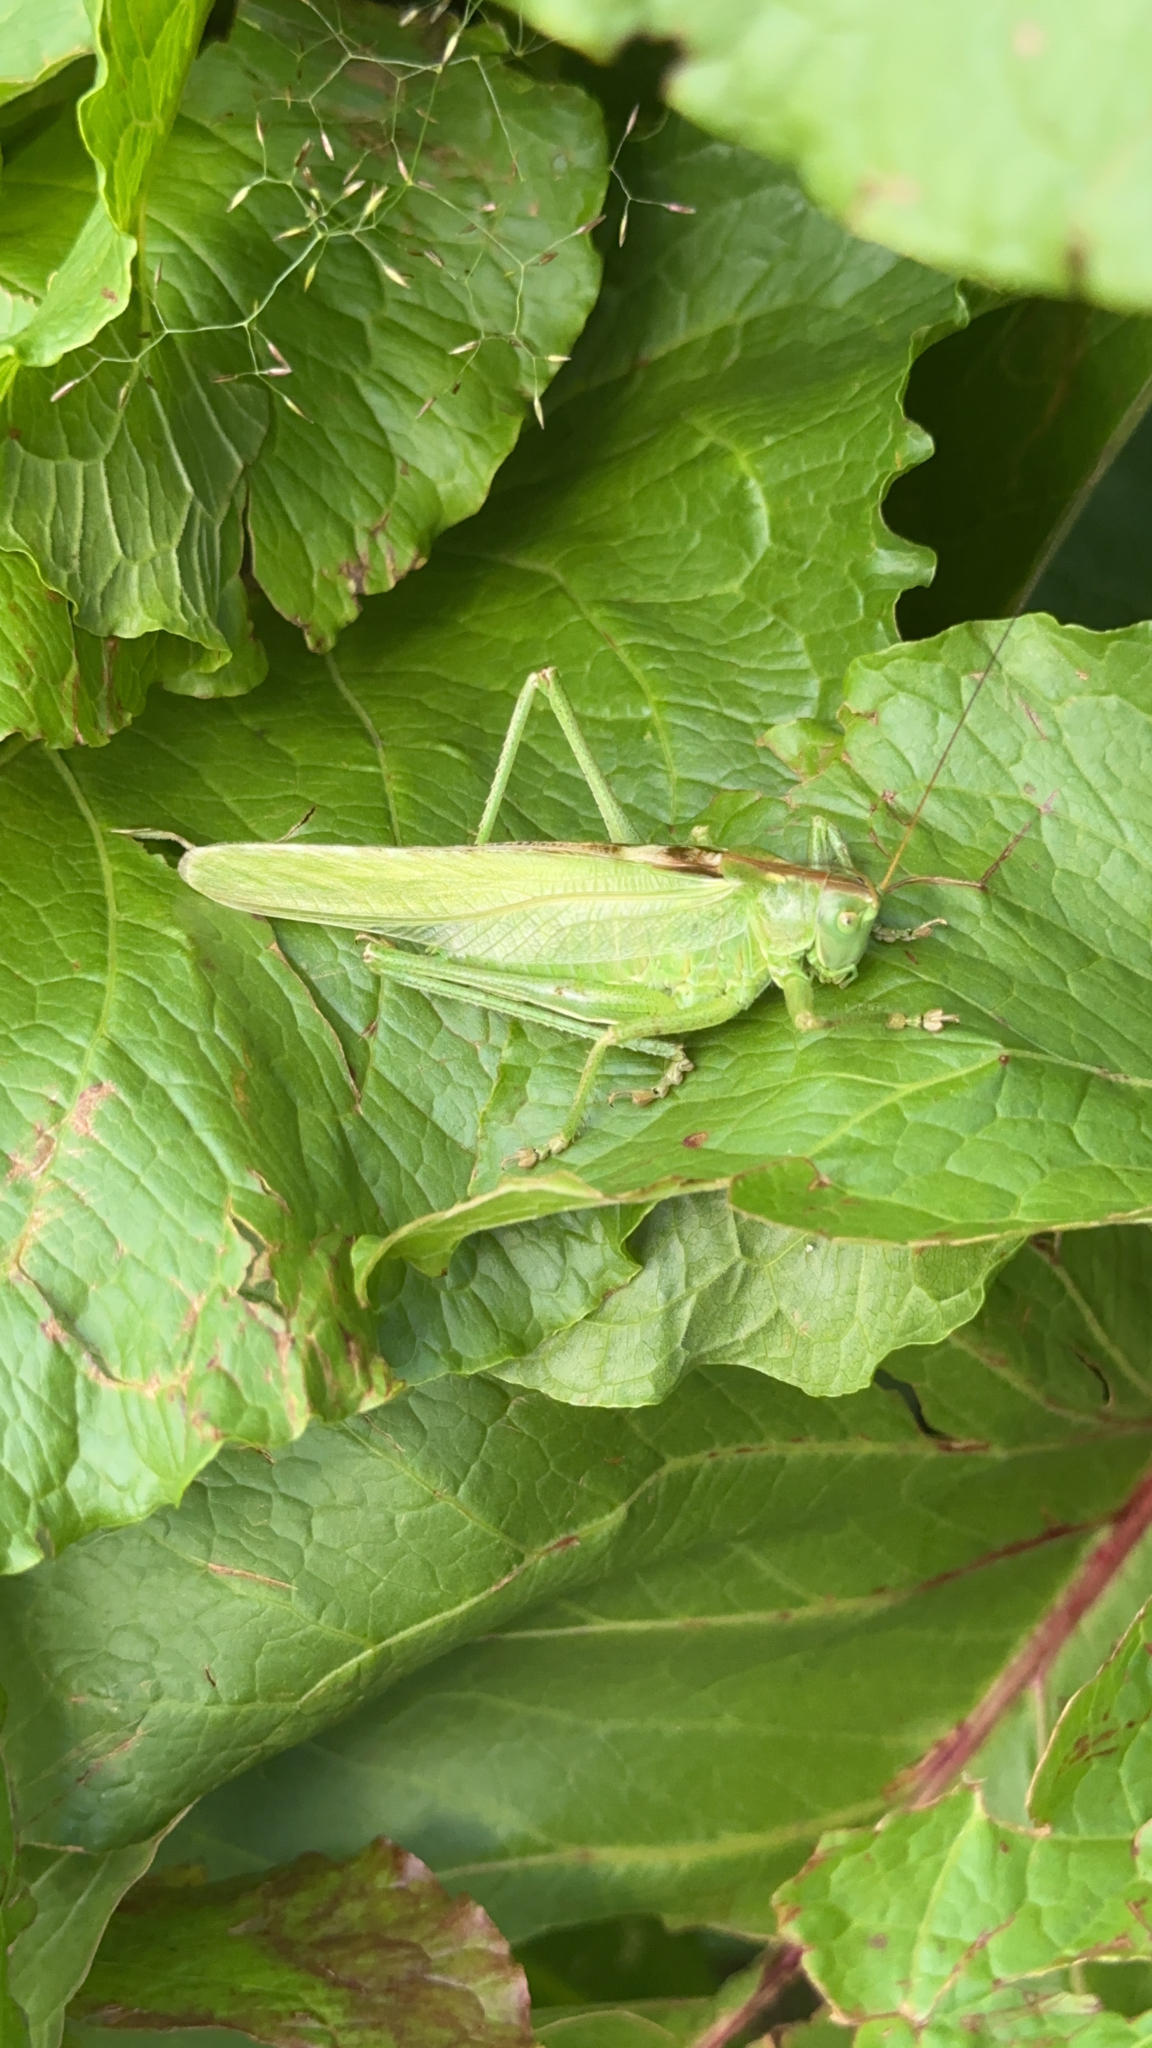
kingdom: Animalia
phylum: Arthropoda
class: Insecta
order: Orthoptera
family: Tettigoniidae
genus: Tettigonia
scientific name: Tettigonia viridissima
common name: Great green bush-cricket
